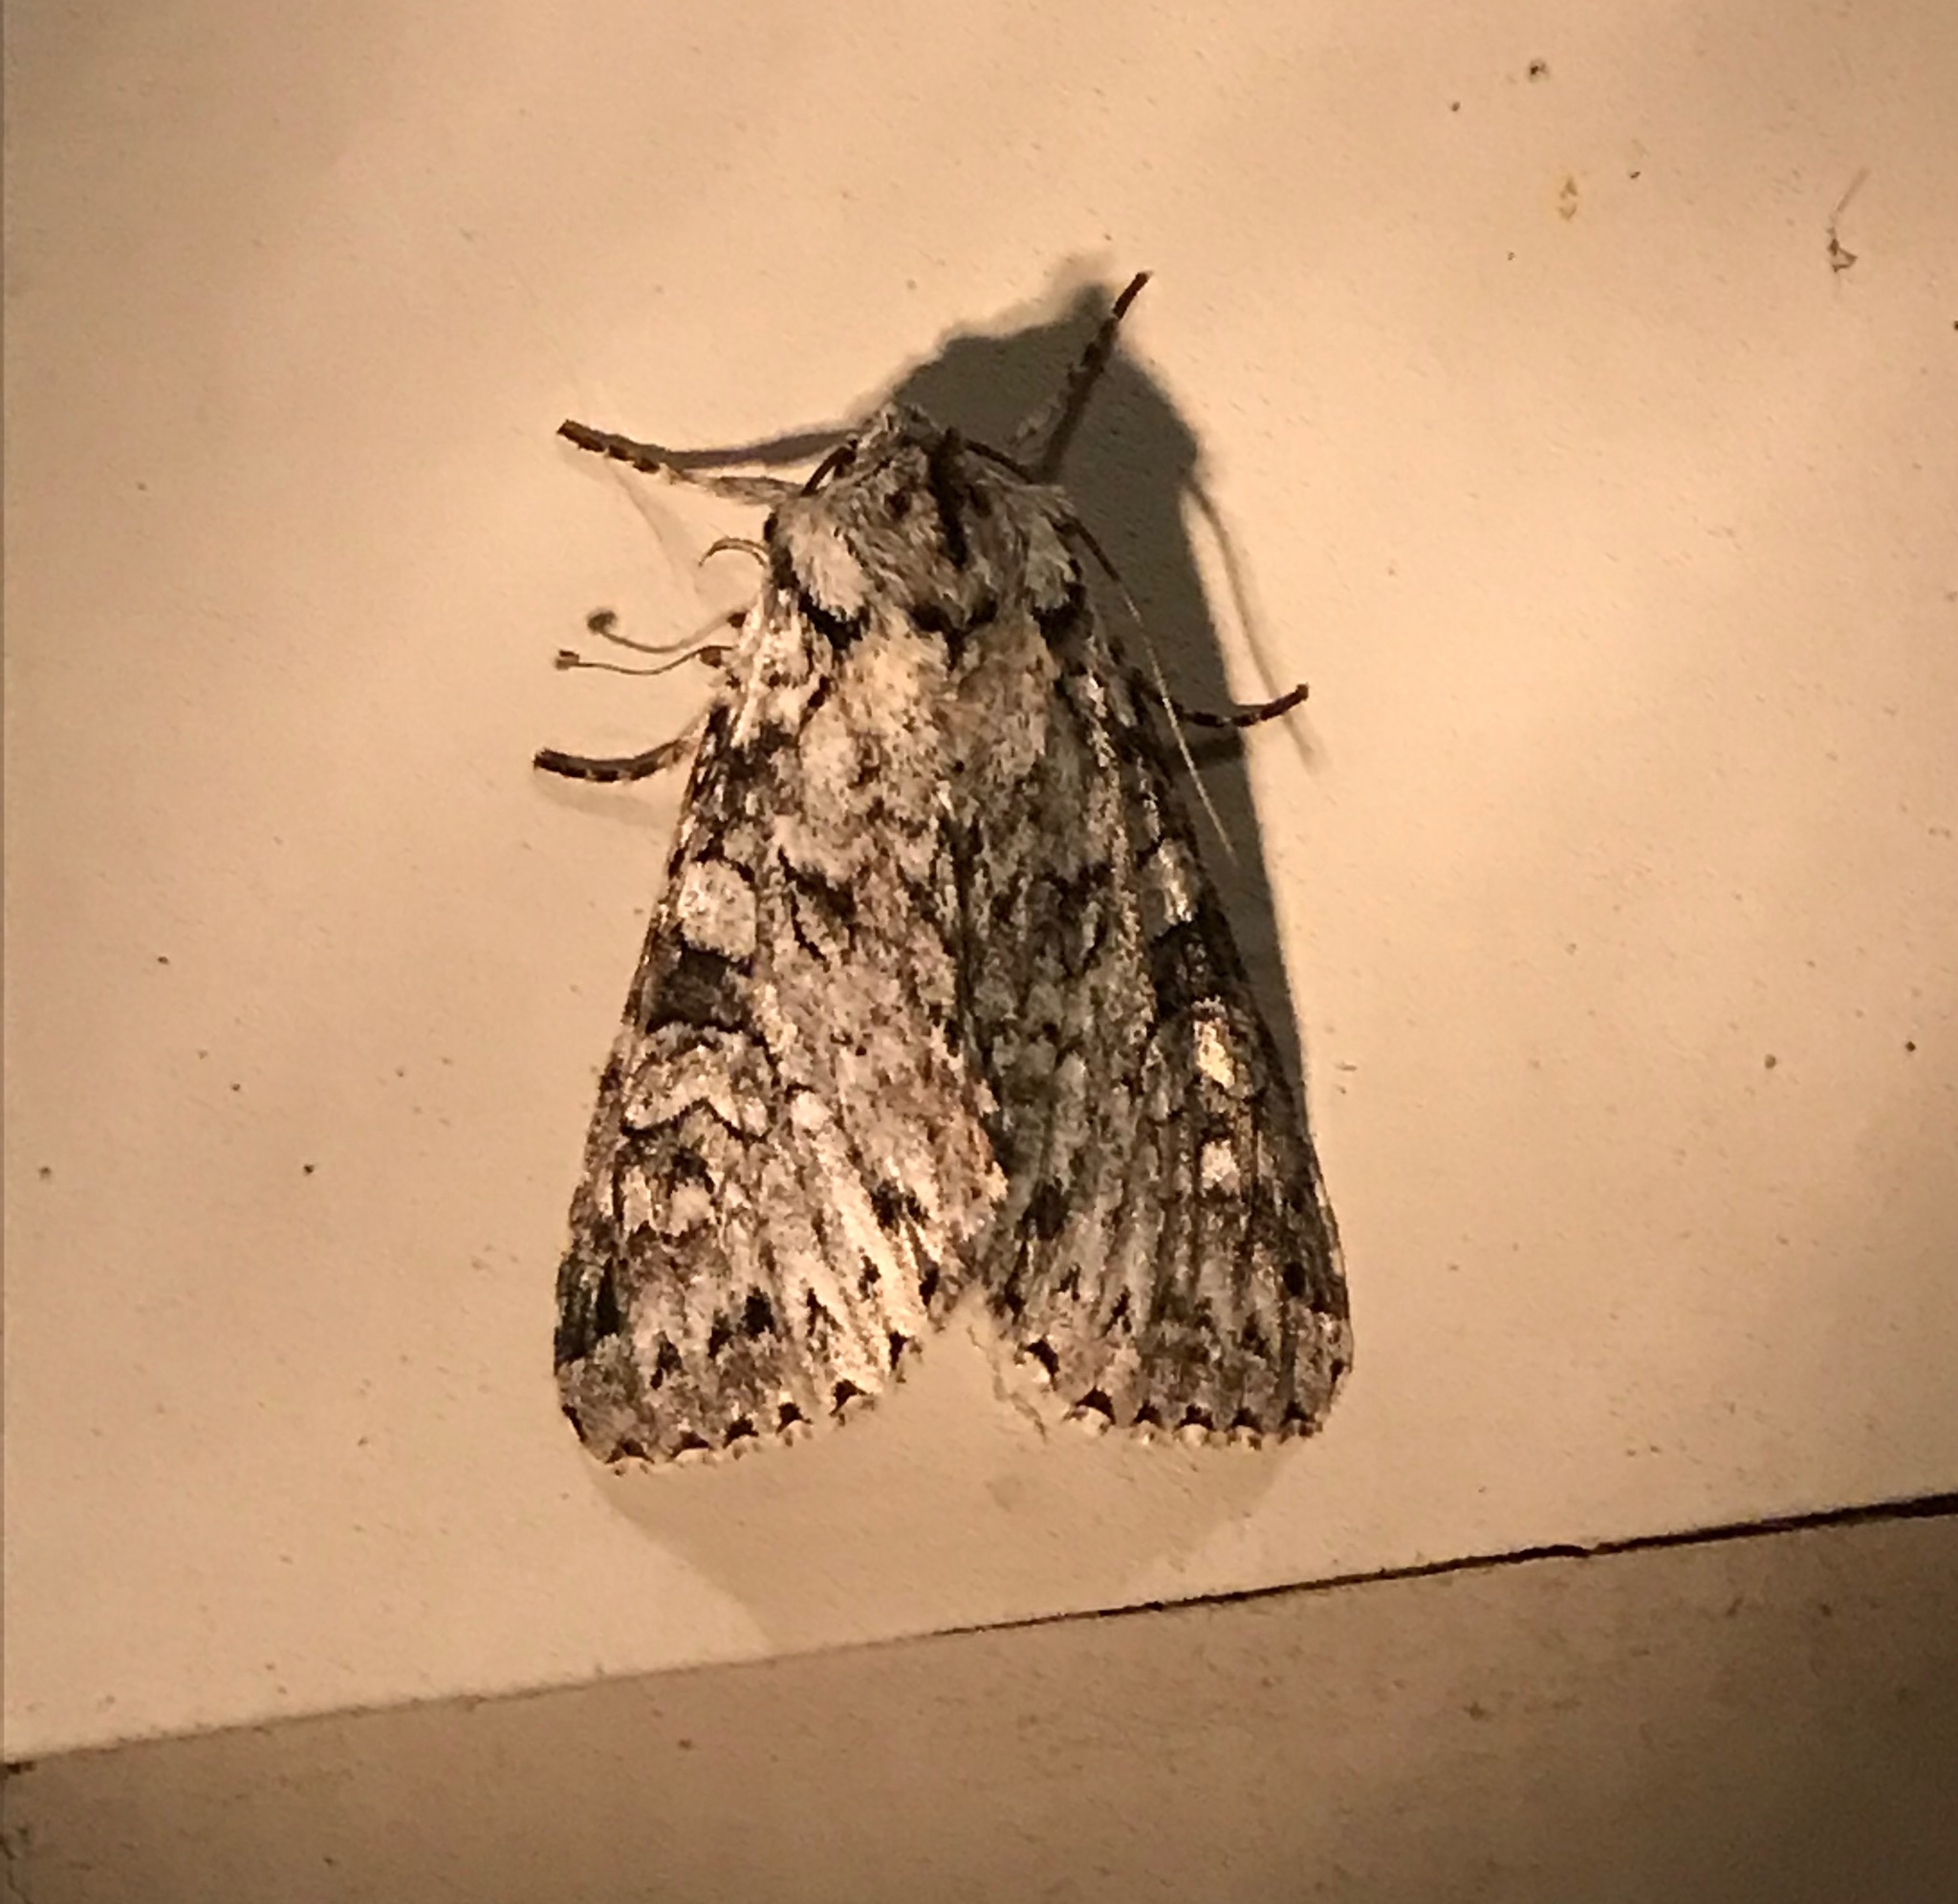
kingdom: Animalia
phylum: Arthropoda
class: Insecta
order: Lepidoptera
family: Noctuidae
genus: Polia
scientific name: Polia nimbosa
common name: Stormy arches
